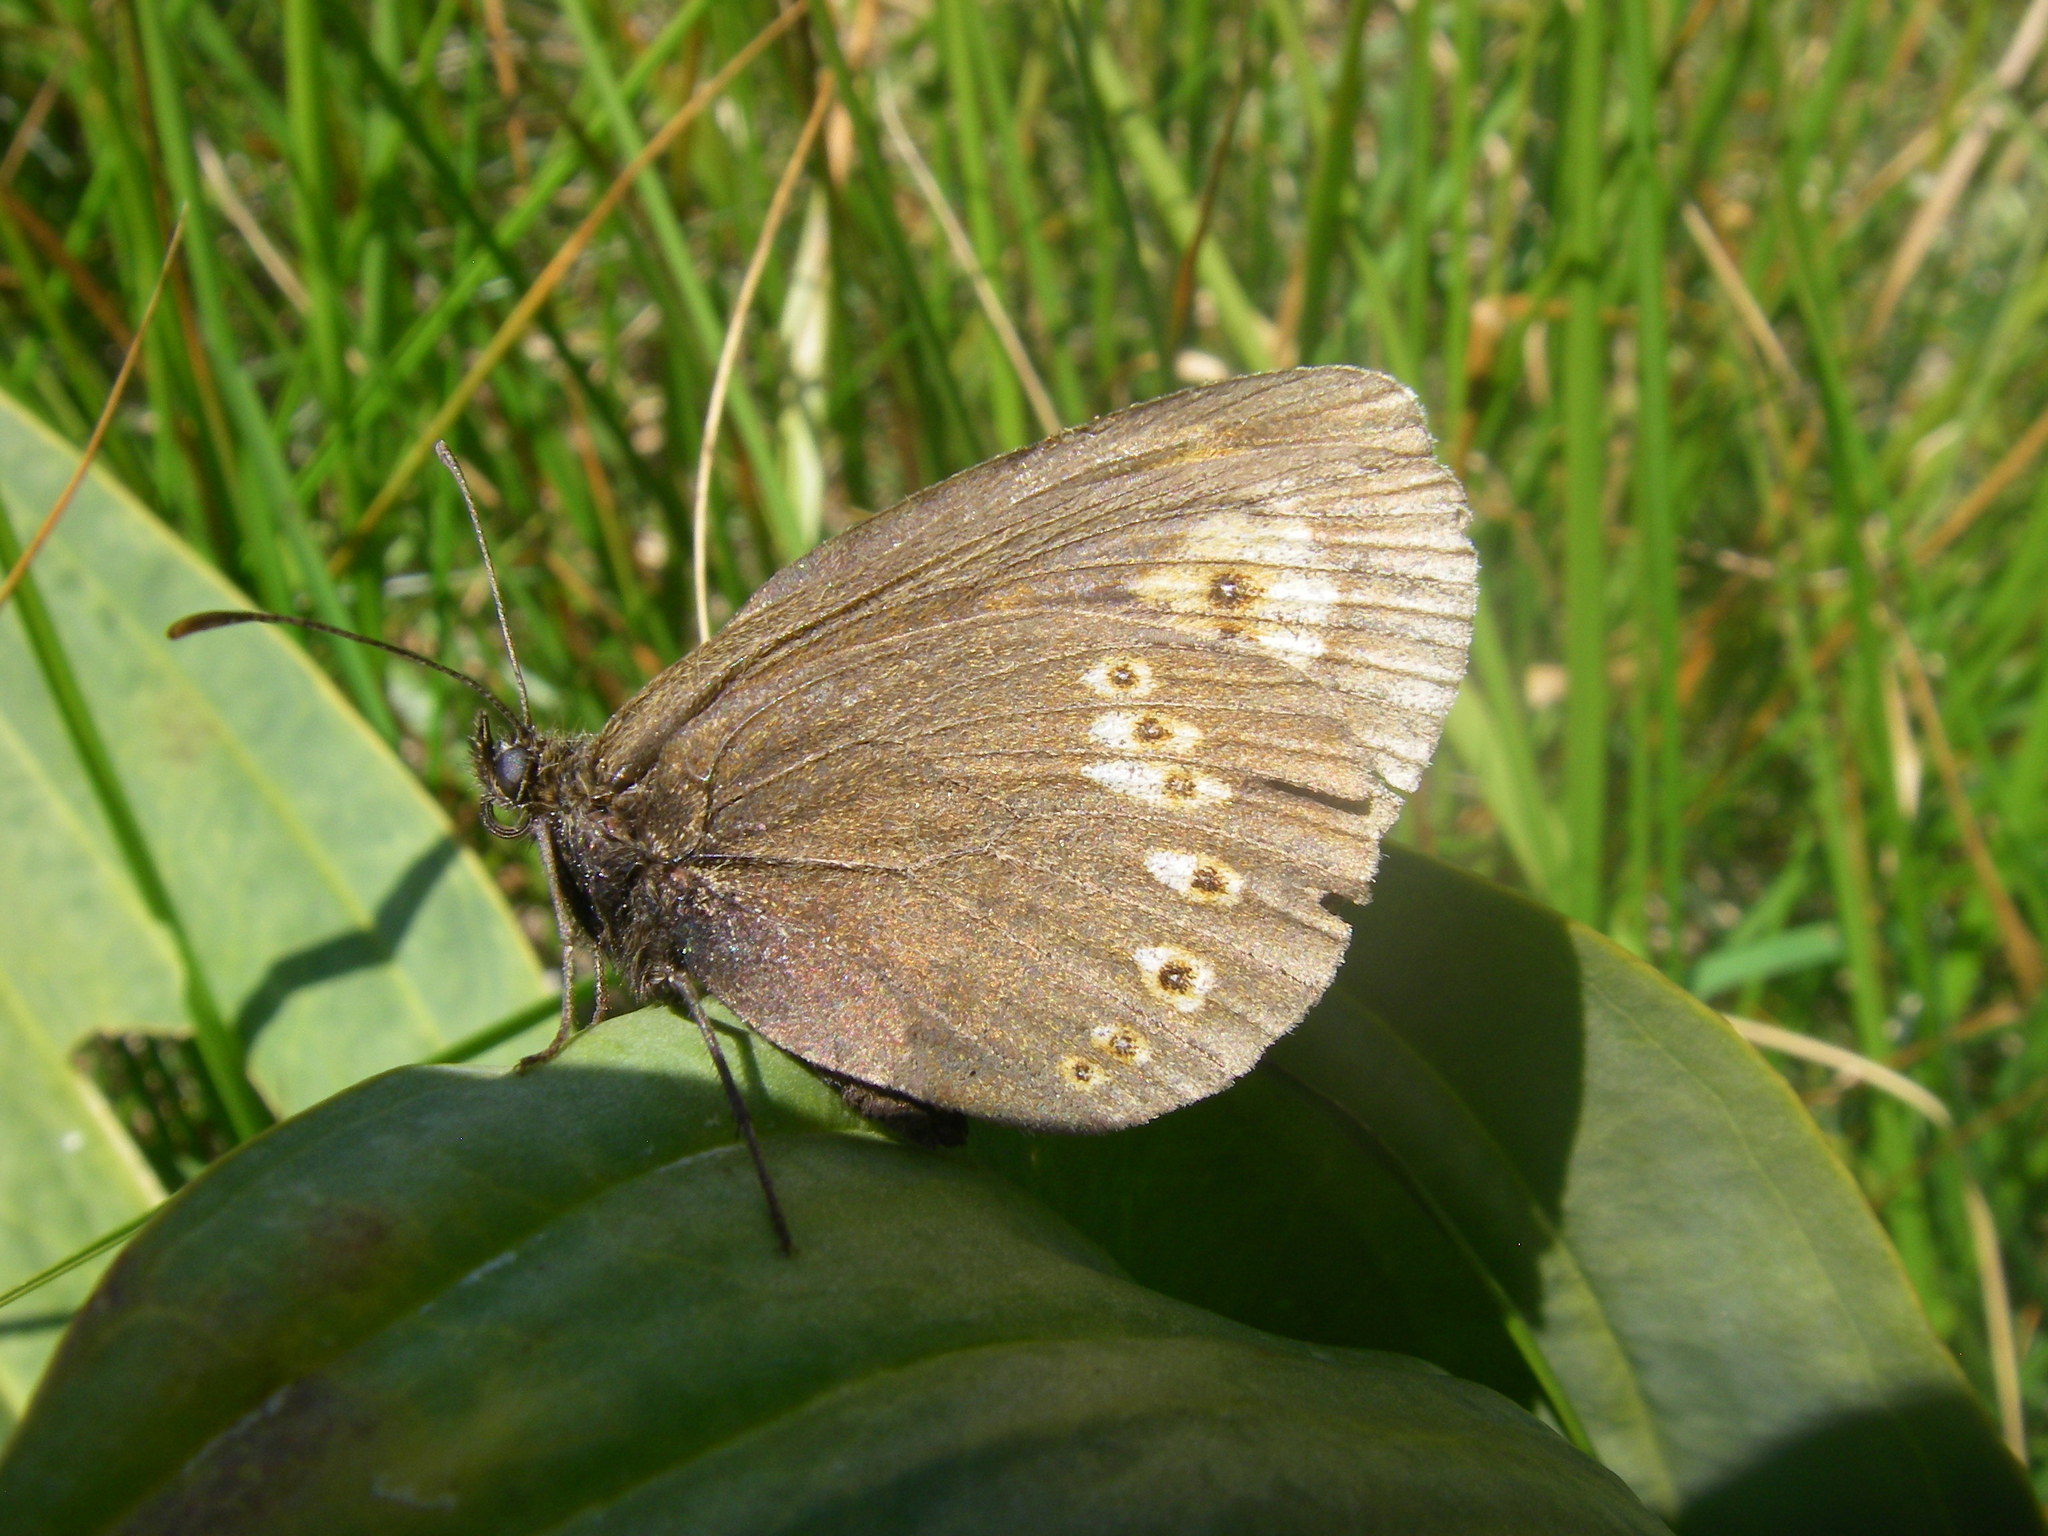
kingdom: Animalia
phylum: Arthropoda
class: Insecta
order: Lepidoptera
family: Nymphalidae
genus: Erebia
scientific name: Erebia alberganus
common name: Almond-eyed ringlet
